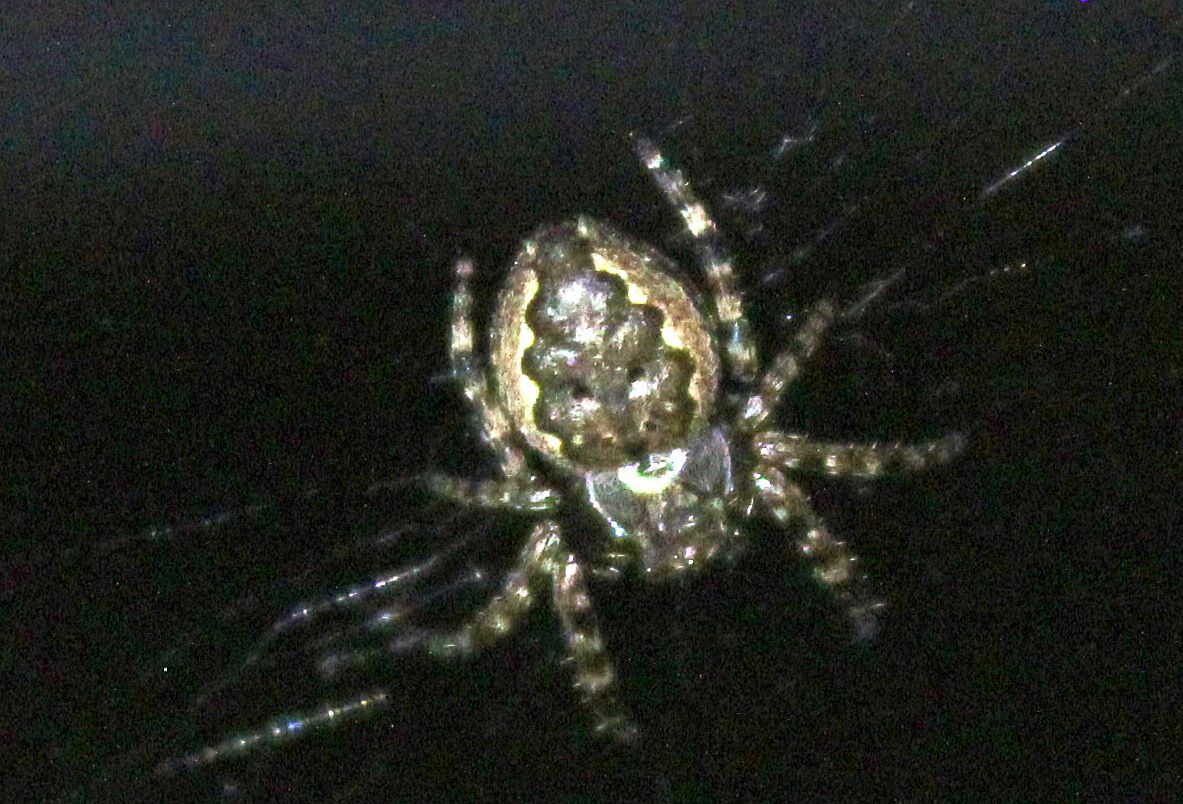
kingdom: Animalia
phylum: Arthropoda
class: Arachnida
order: Araneae
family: Araneidae
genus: Nuctenea
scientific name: Nuctenea umbratica
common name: Toad spider
